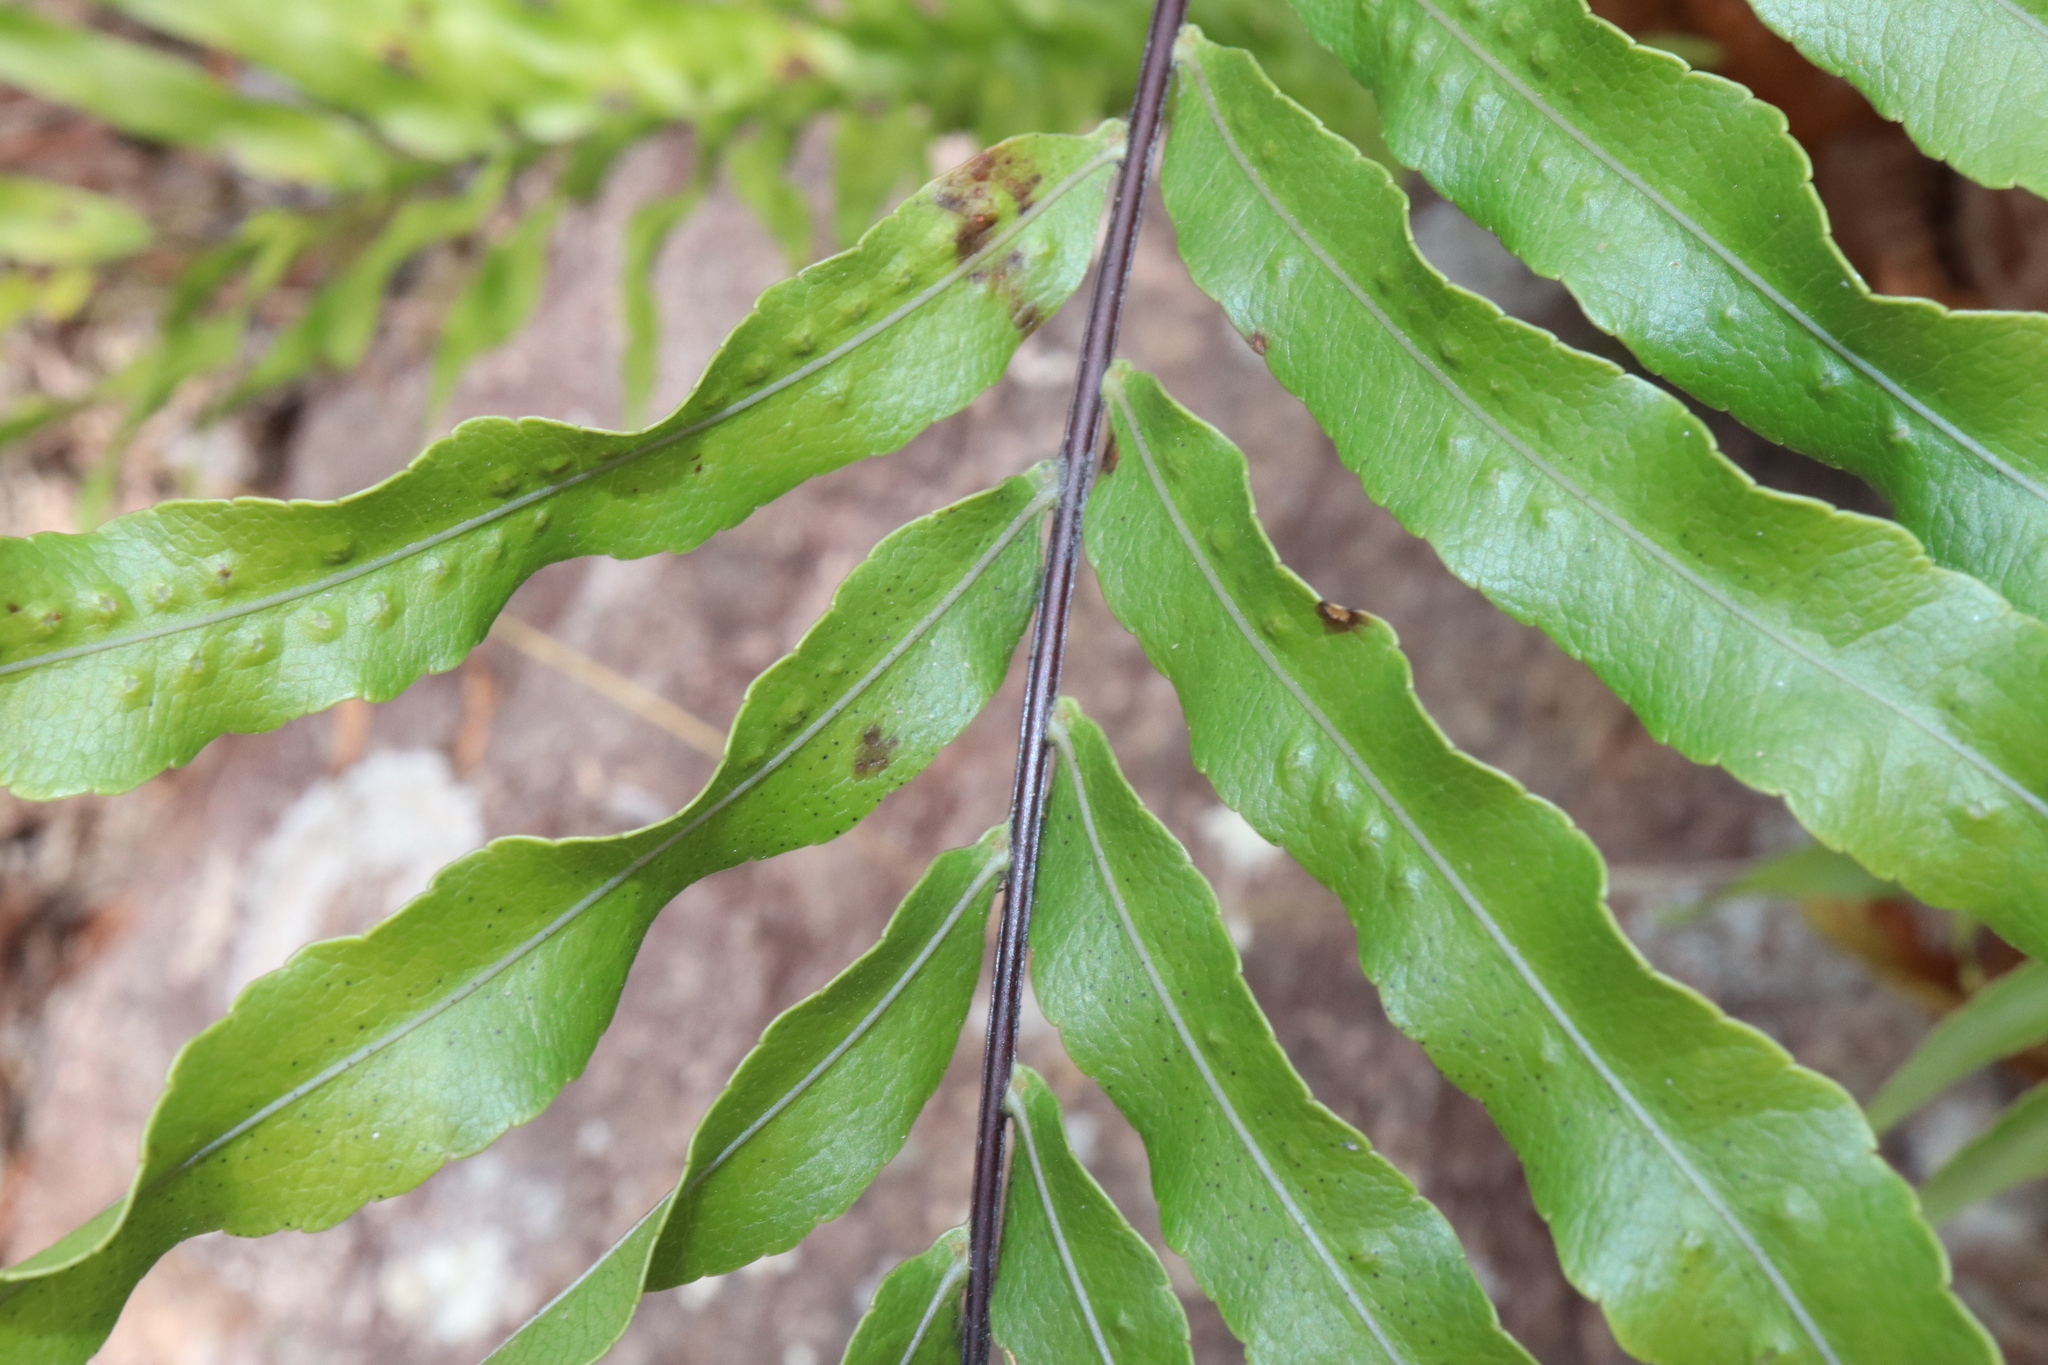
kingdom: Plantae
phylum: Tracheophyta
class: Polypodiopsida
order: Polypodiales
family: Polypodiaceae
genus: Drynaria
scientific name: Drynaria rigidula
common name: Basket fern
